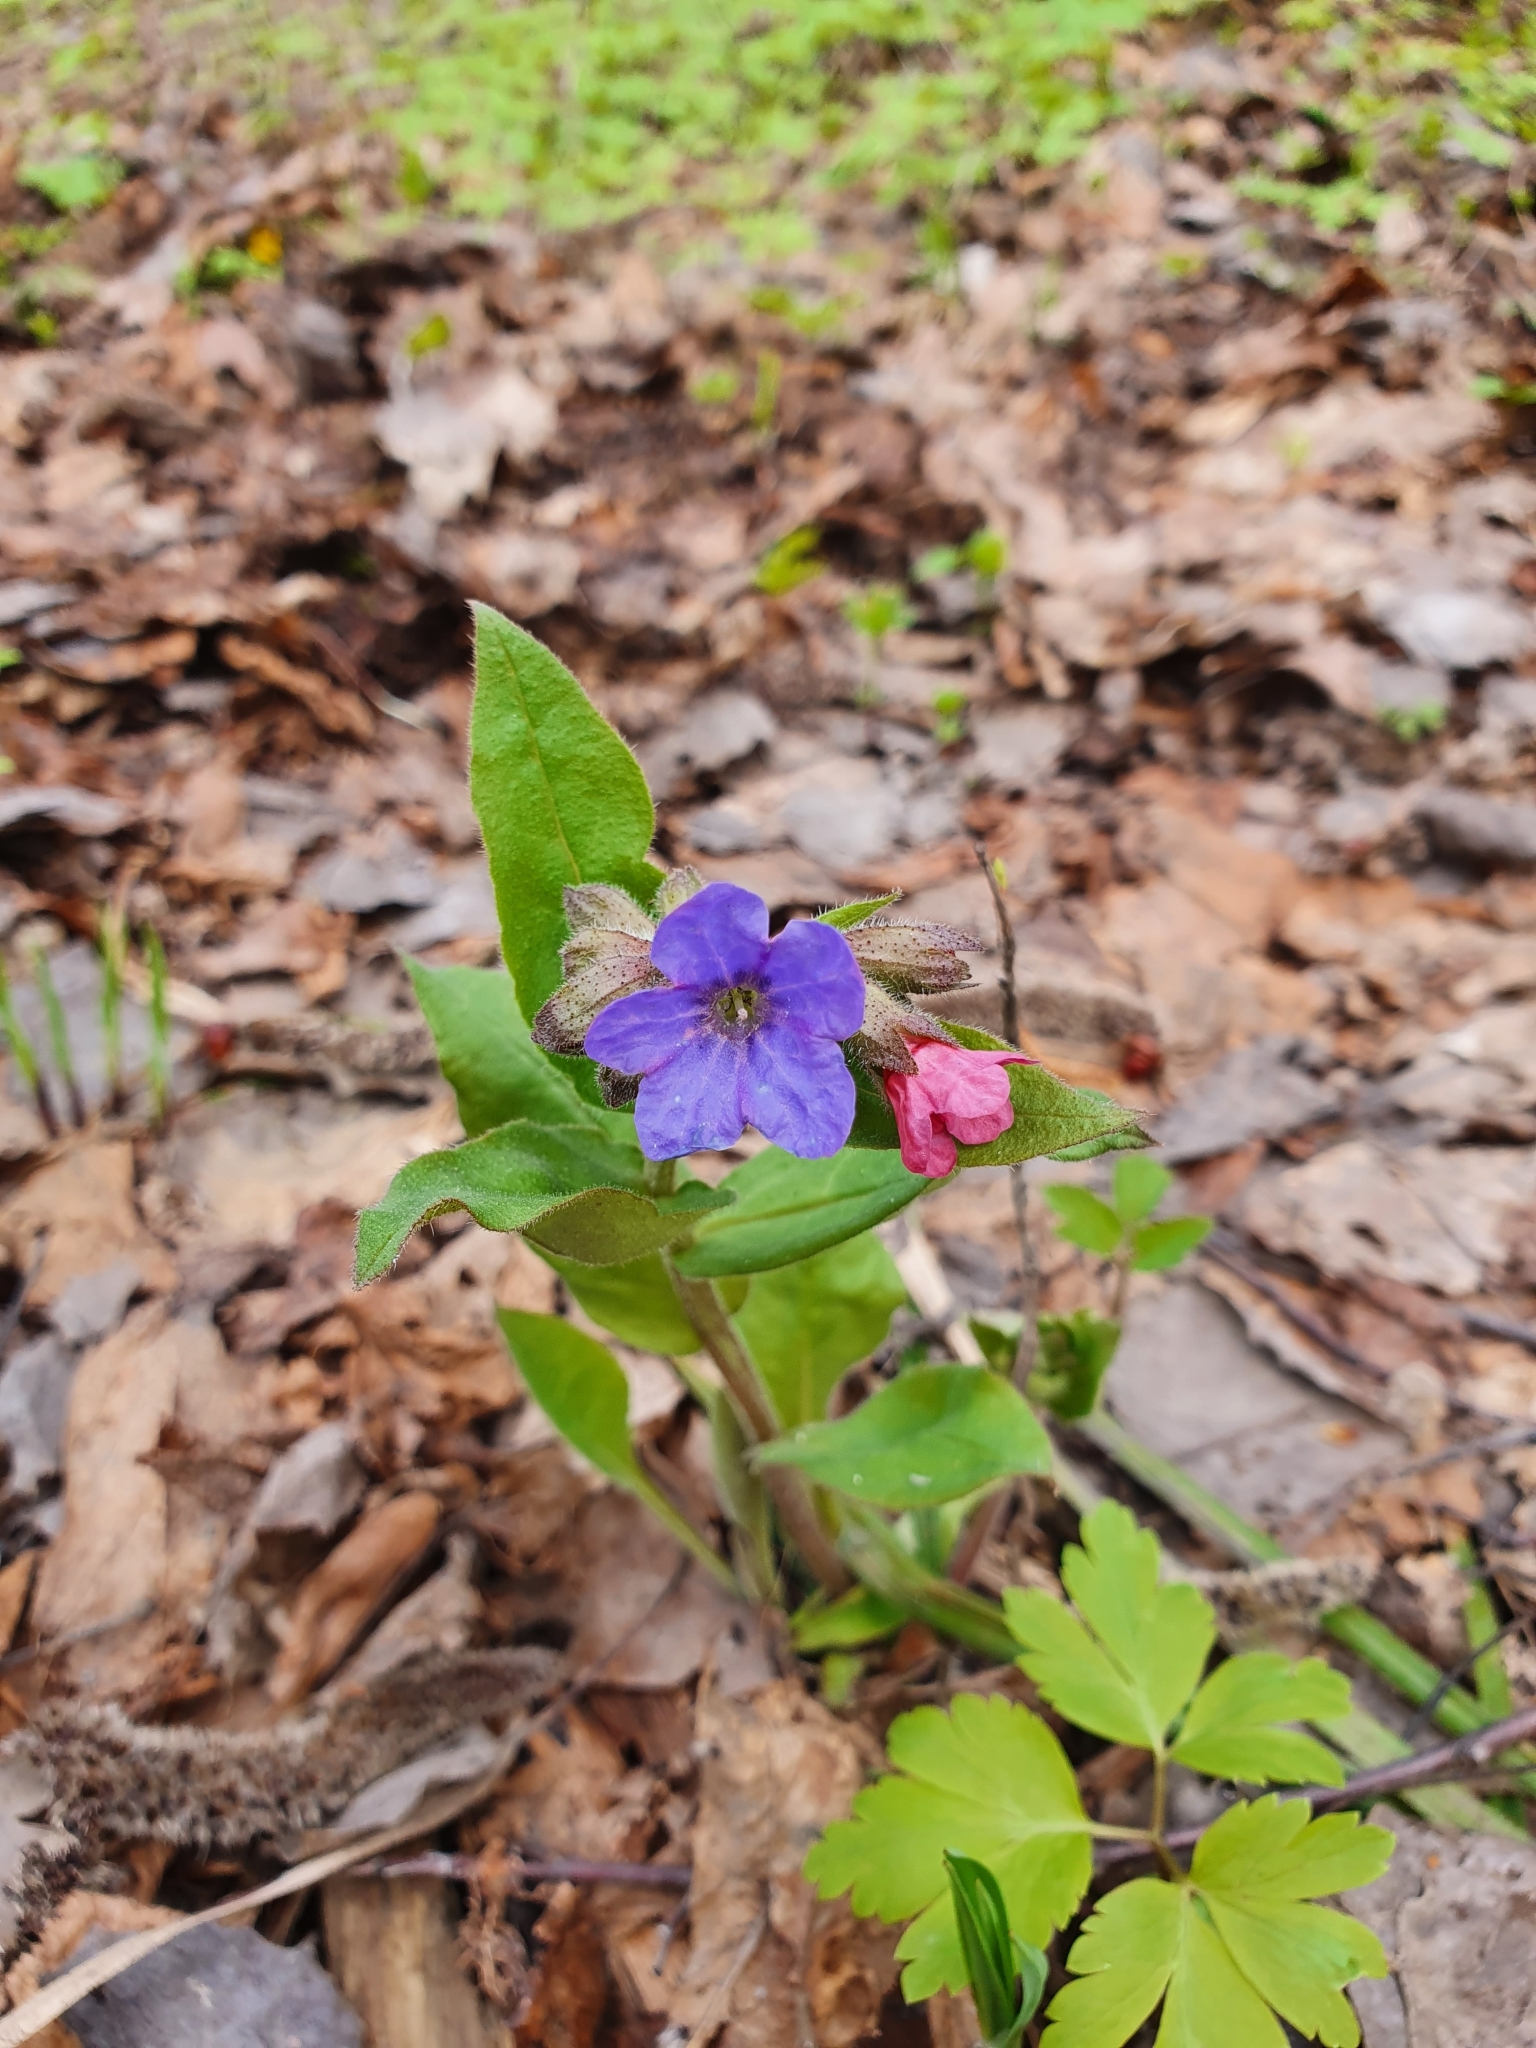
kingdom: Plantae
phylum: Tracheophyta
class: Magnoliopsida
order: Boraginales
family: Boraginaceae
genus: Pulmonaria
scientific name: Pulmonaria obscura
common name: Suffolk lungwort
